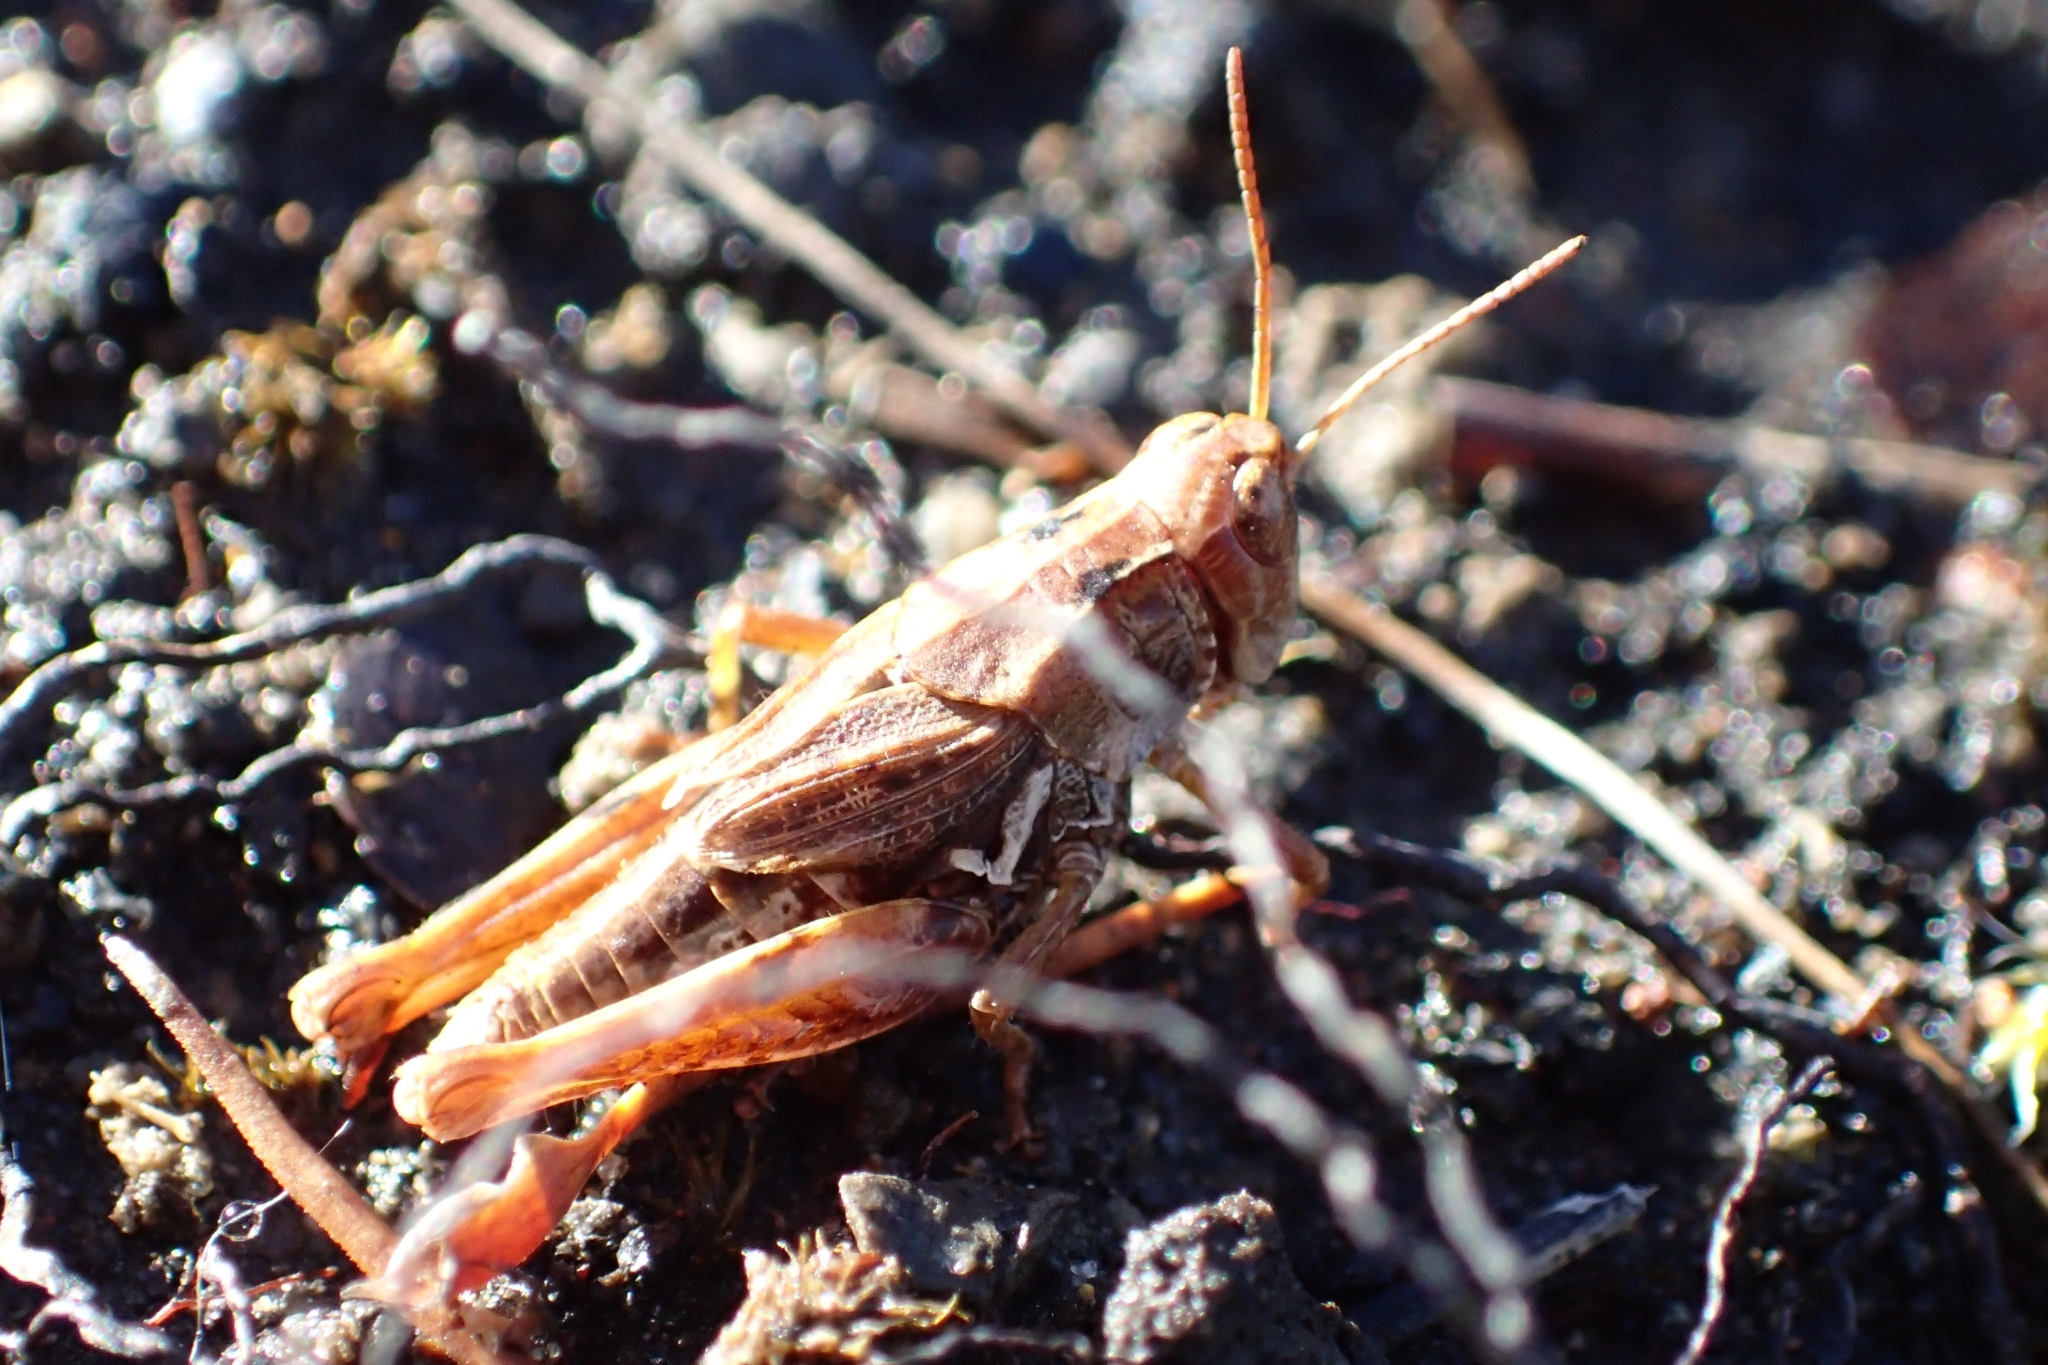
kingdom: Animalia
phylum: Arthropoda
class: Insecta
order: Orthoptera
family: Acrididae
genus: Phaulacridium
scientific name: Phaulacridium marginale
